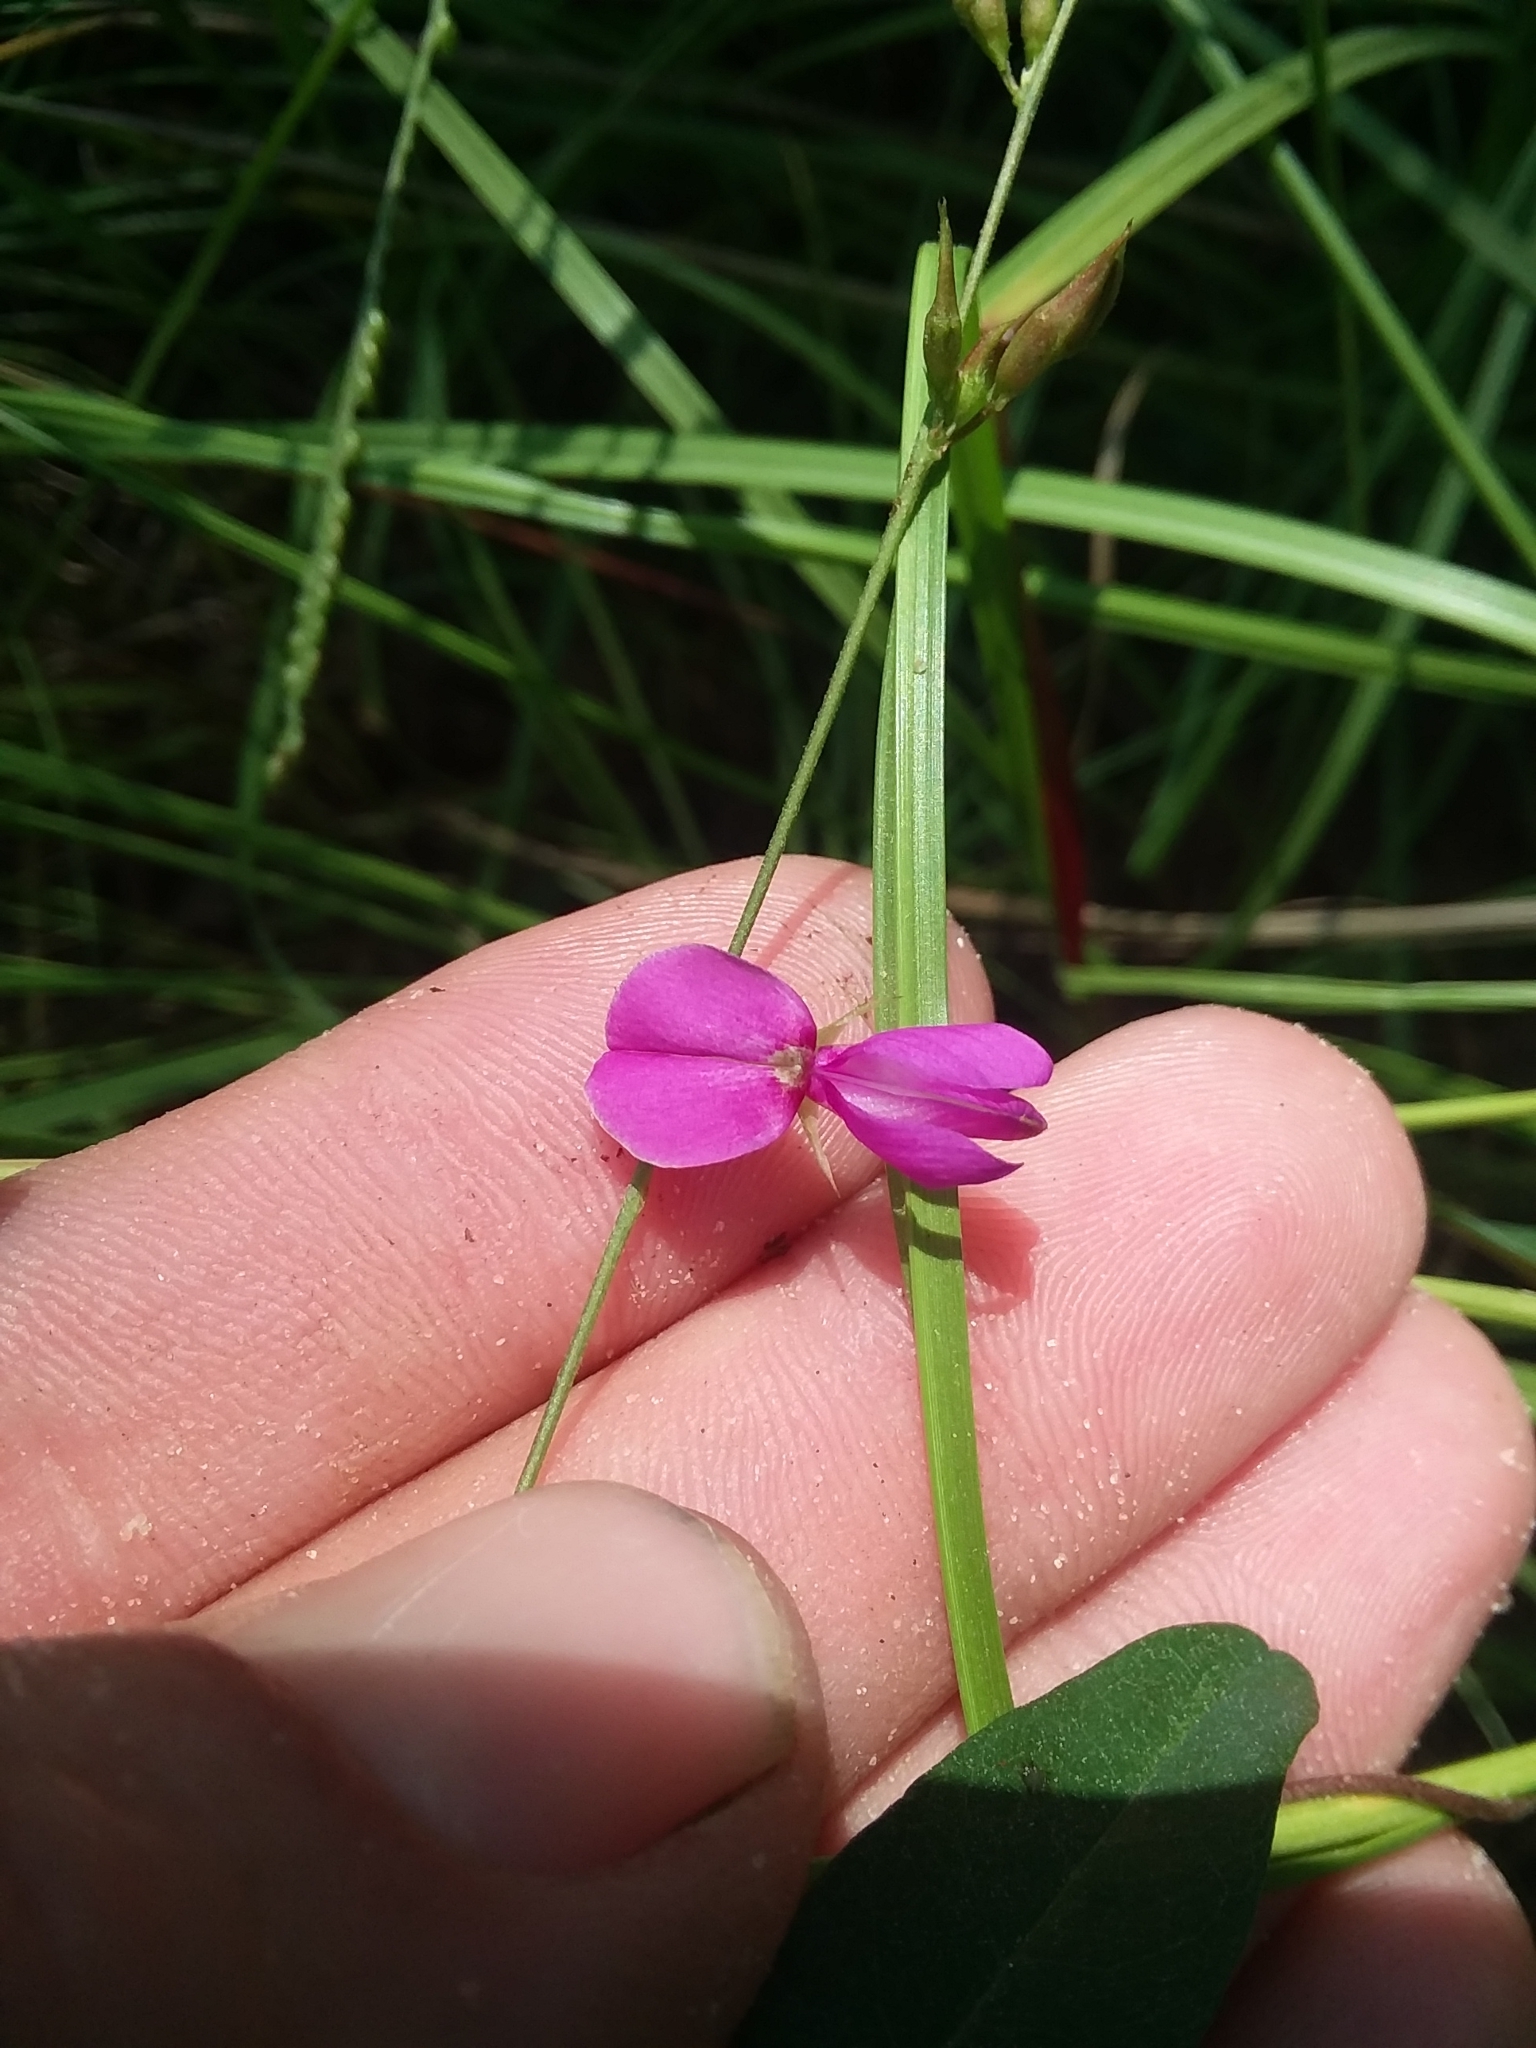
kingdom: Plantae
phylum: Tracheophyta
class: Magnoliopsida
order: Fabales
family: Fabaceae
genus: Galactia
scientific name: Galactia volubilis
